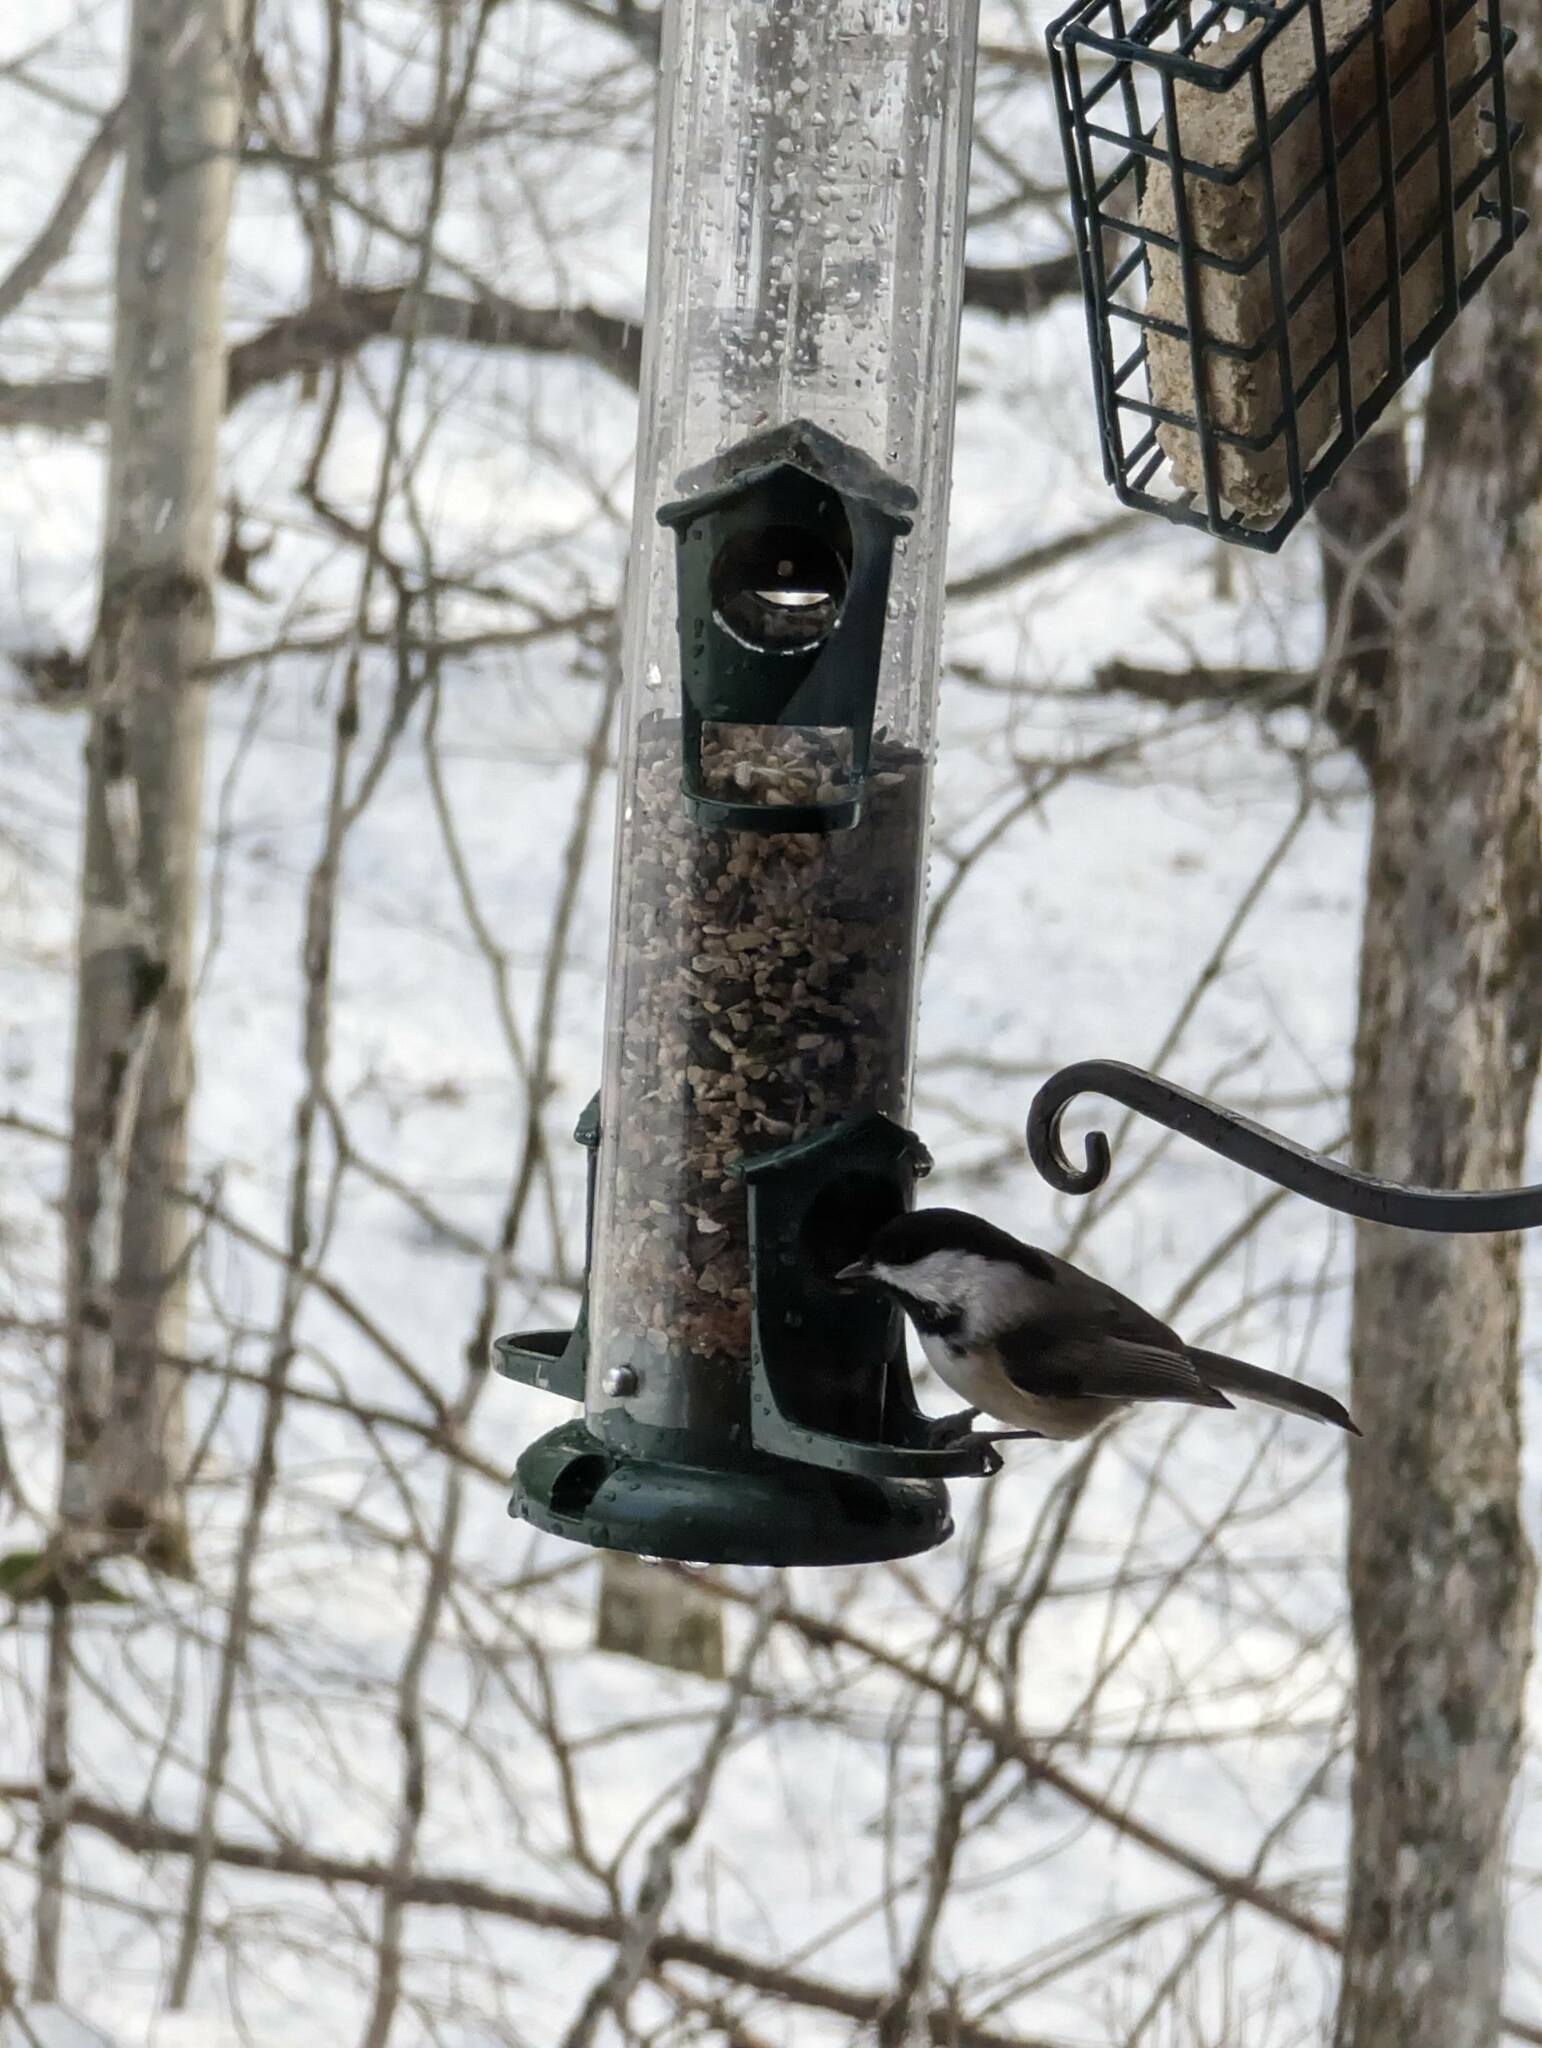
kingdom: Animalia
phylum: Chordata
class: Aves
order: Passeriformes
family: Paridae
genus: Poecile
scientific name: Poecile atricapillus
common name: Black-capped chickadee
